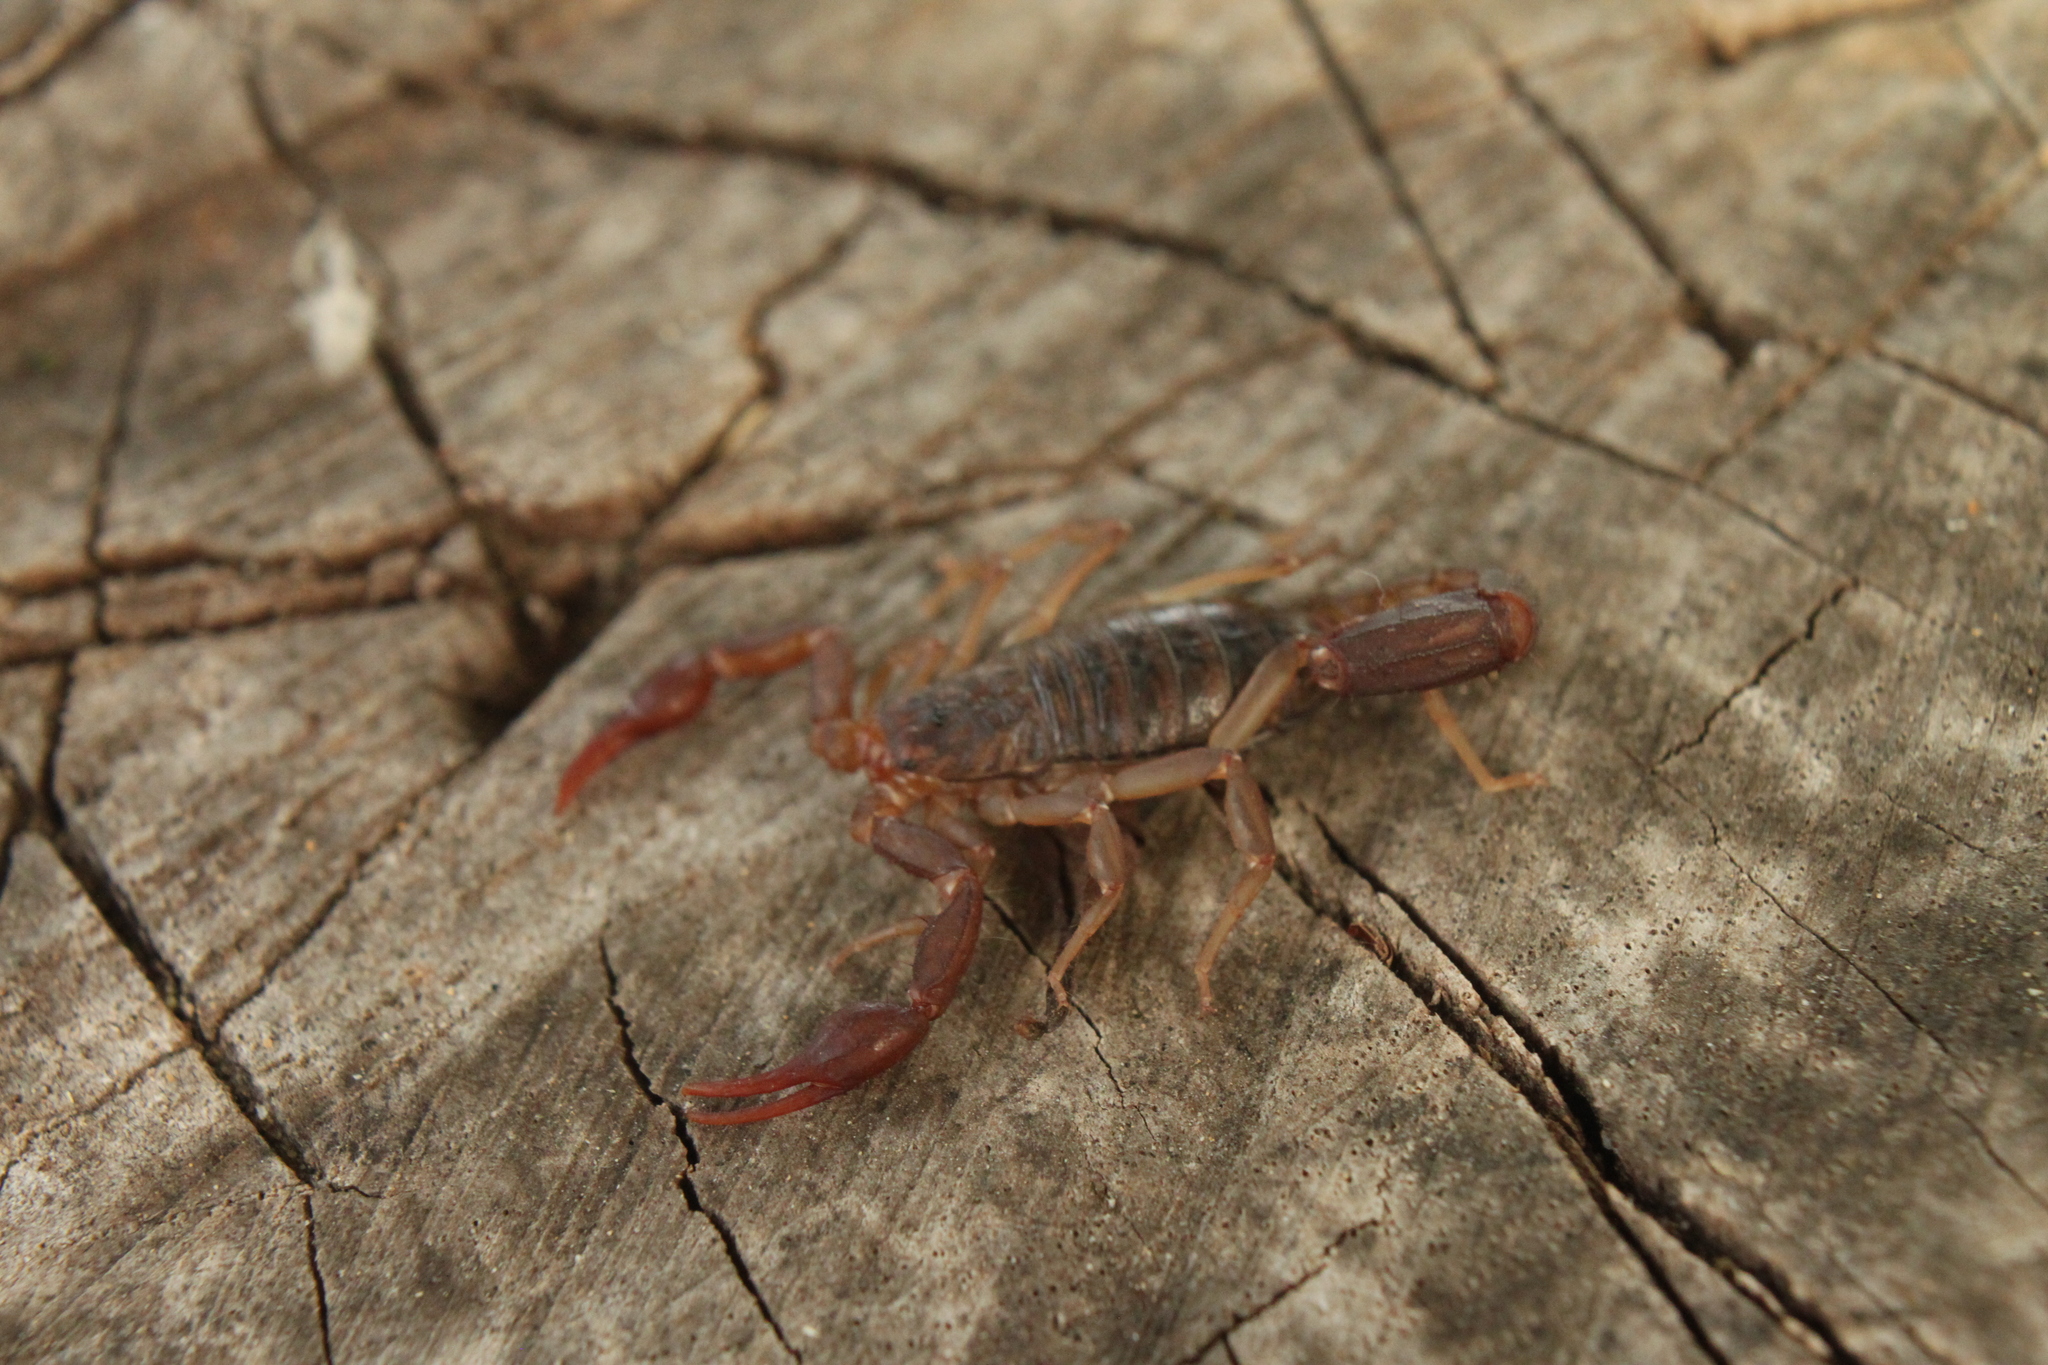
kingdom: Animalia
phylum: Arthropoda
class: Arachnida
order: Scorpiones
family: Vaejovidae
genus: Vaejovis
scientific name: Vaejovis carolinianus
